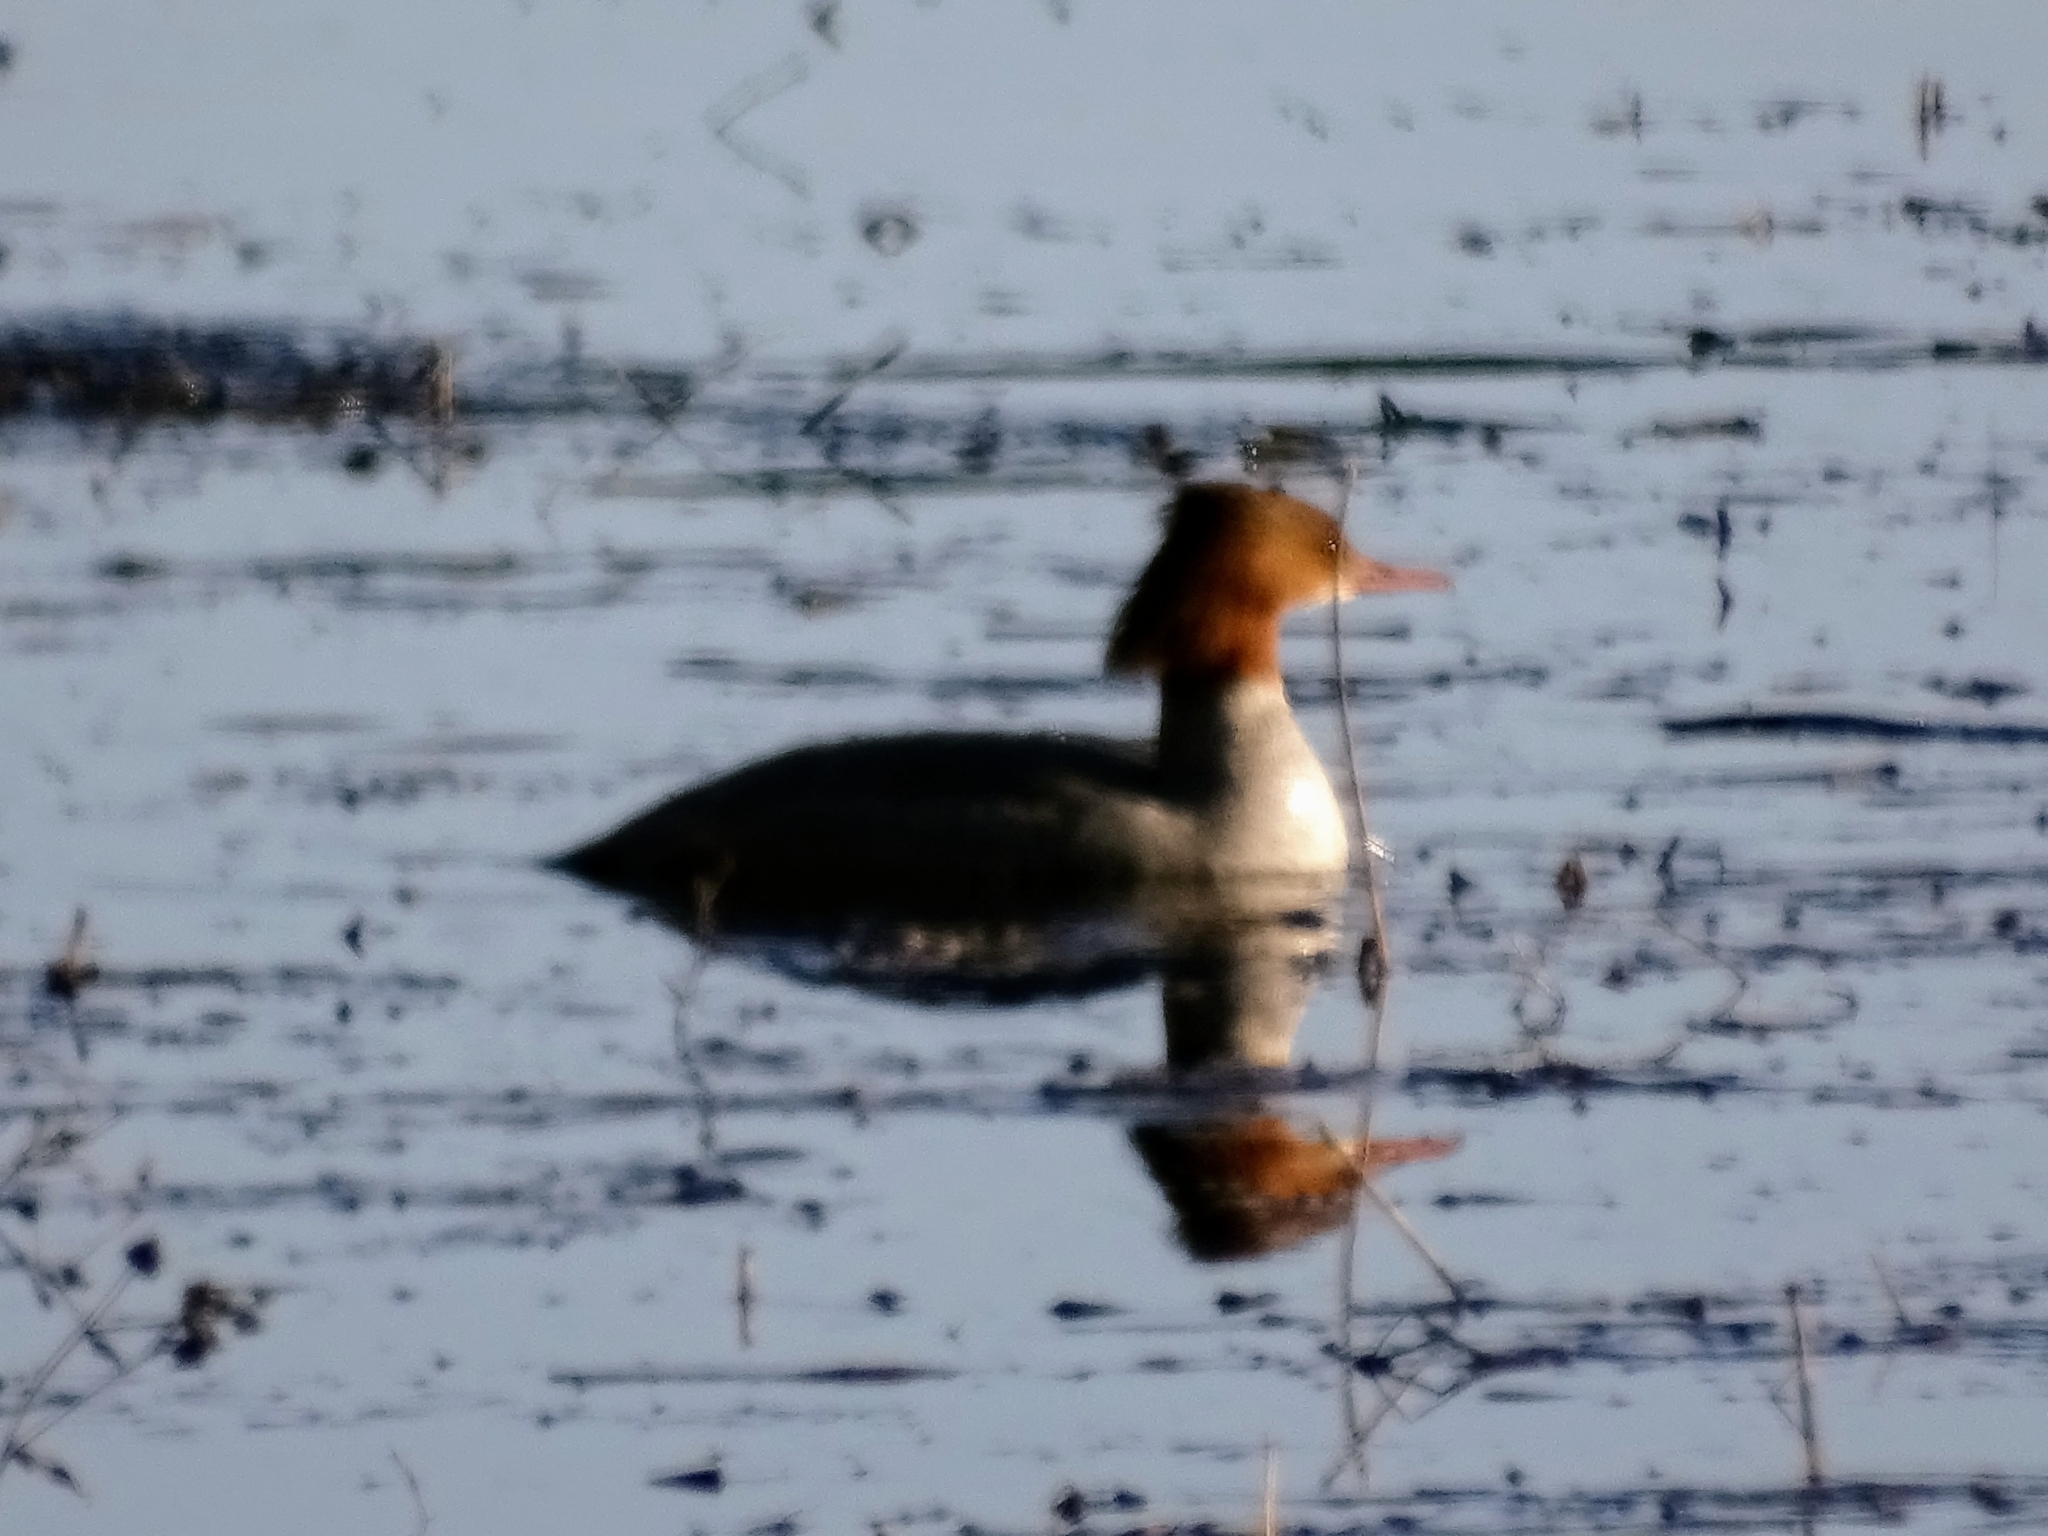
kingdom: Animalia
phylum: Chordata
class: Aves
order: Anseriformes
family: Anatidae
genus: Mergus
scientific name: Mergus merganser
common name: Common merganser
